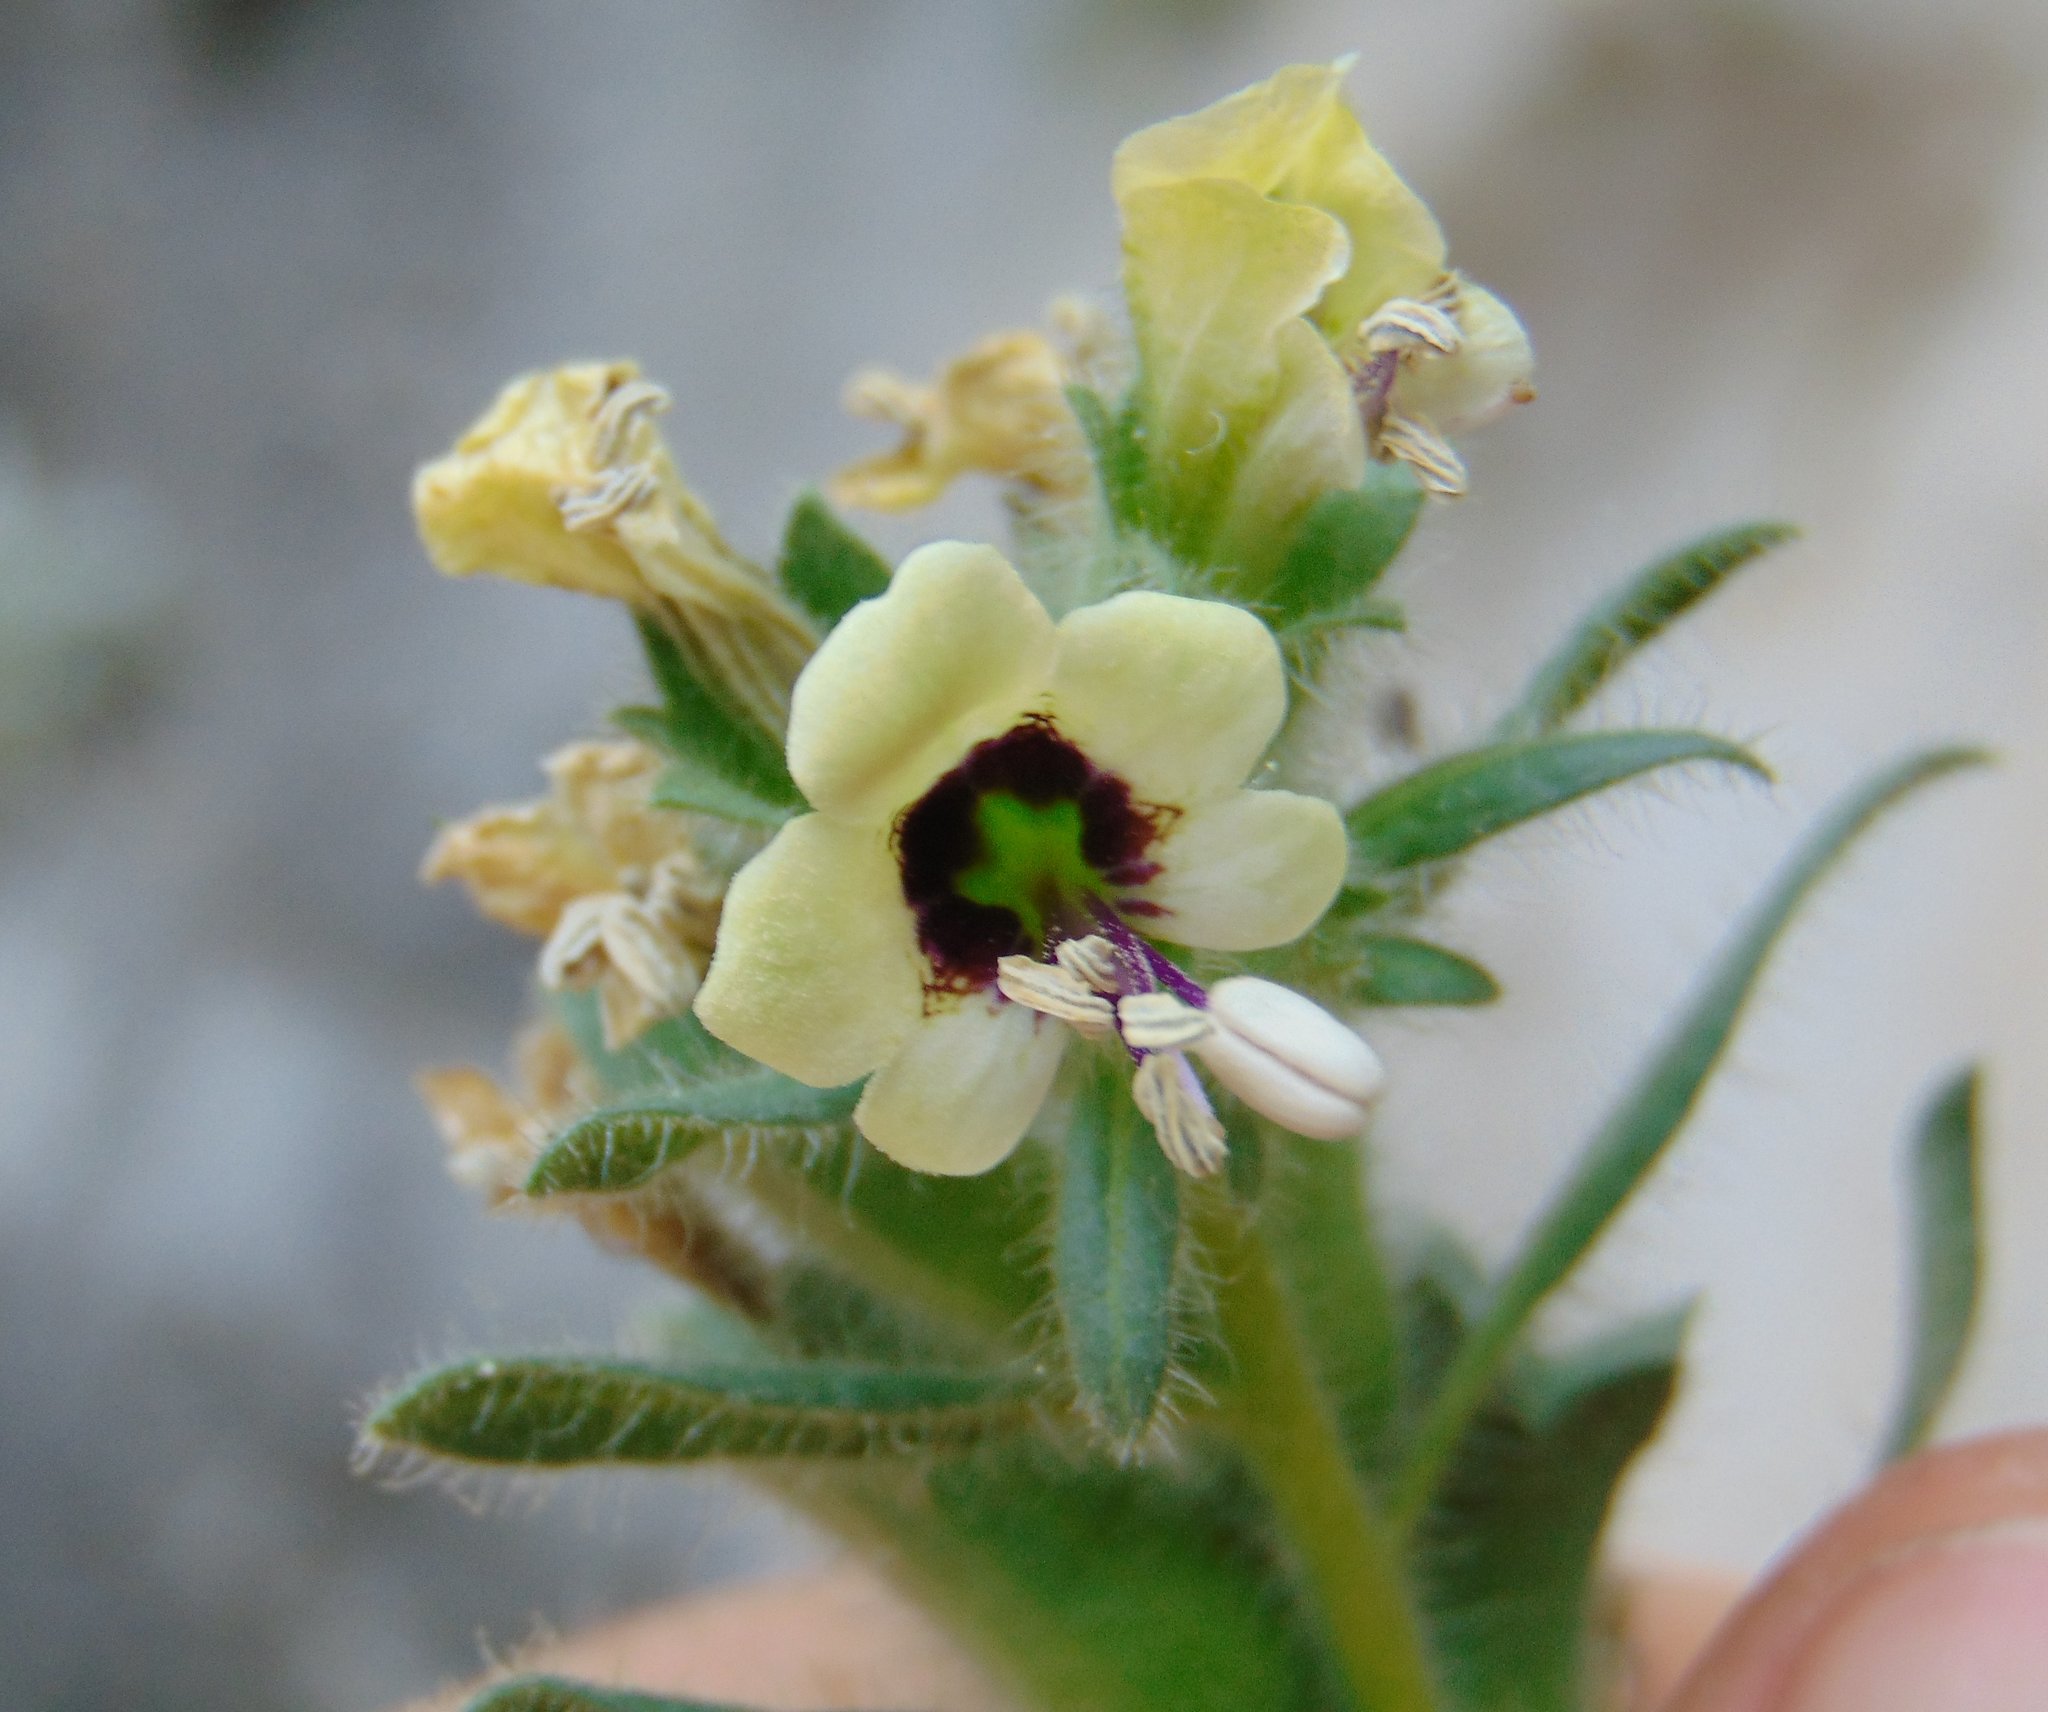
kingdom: Plantae
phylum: Tracheophyta
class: Magnoliopsida
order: Solanales
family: Solanaceae
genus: Hyoscyamus
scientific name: Hyoscyamus albus
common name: White henbane
